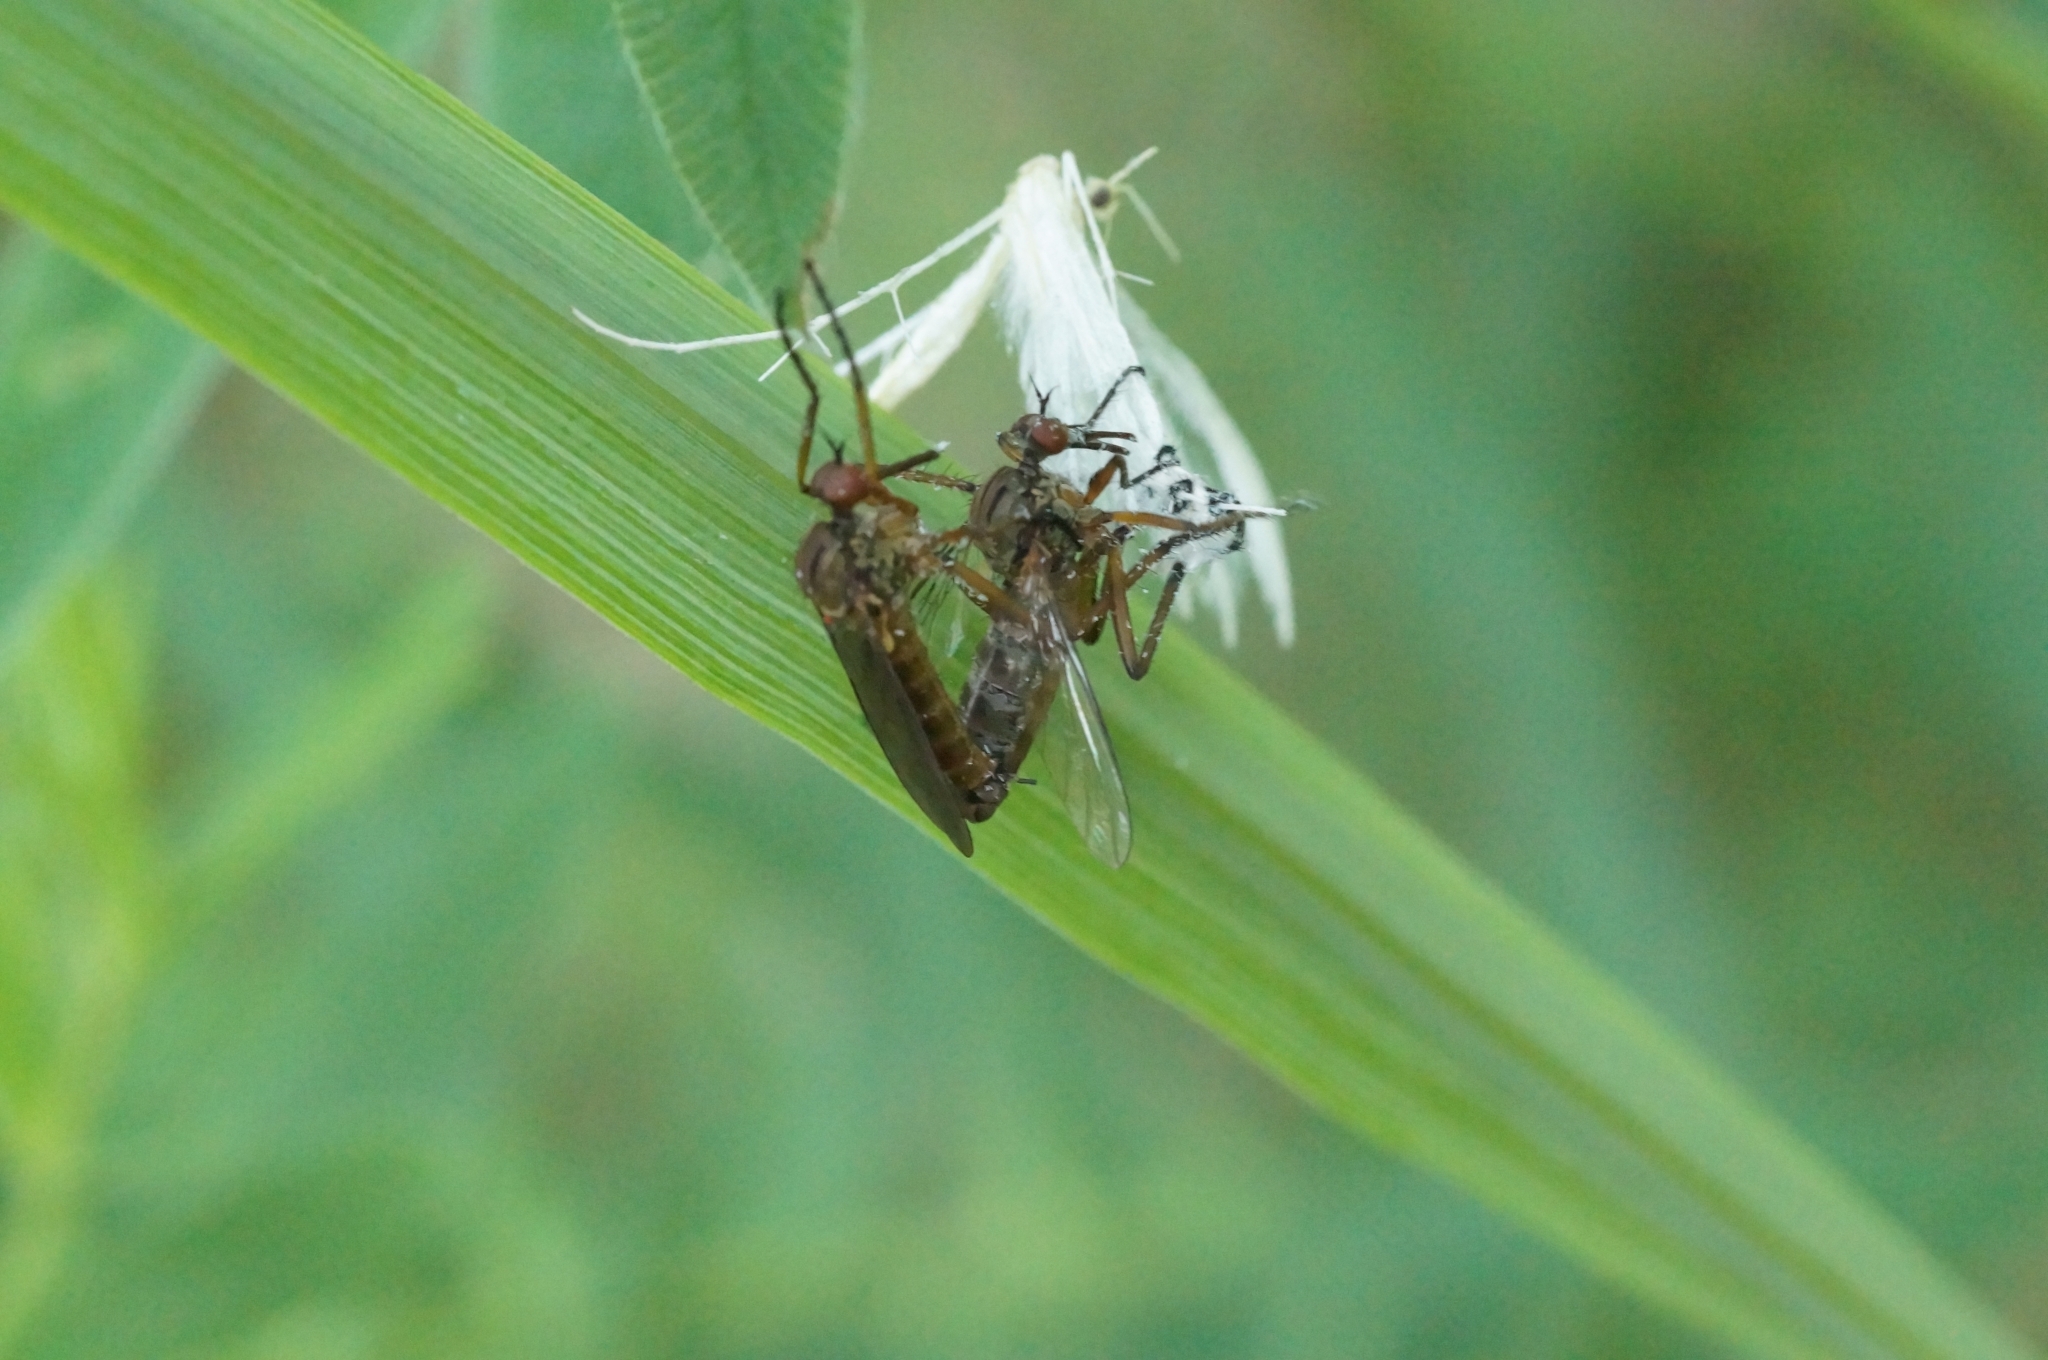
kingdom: Animalia
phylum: Arthropoda
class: Insecta
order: Diptera
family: Empididae
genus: Empis
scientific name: Empis livida
